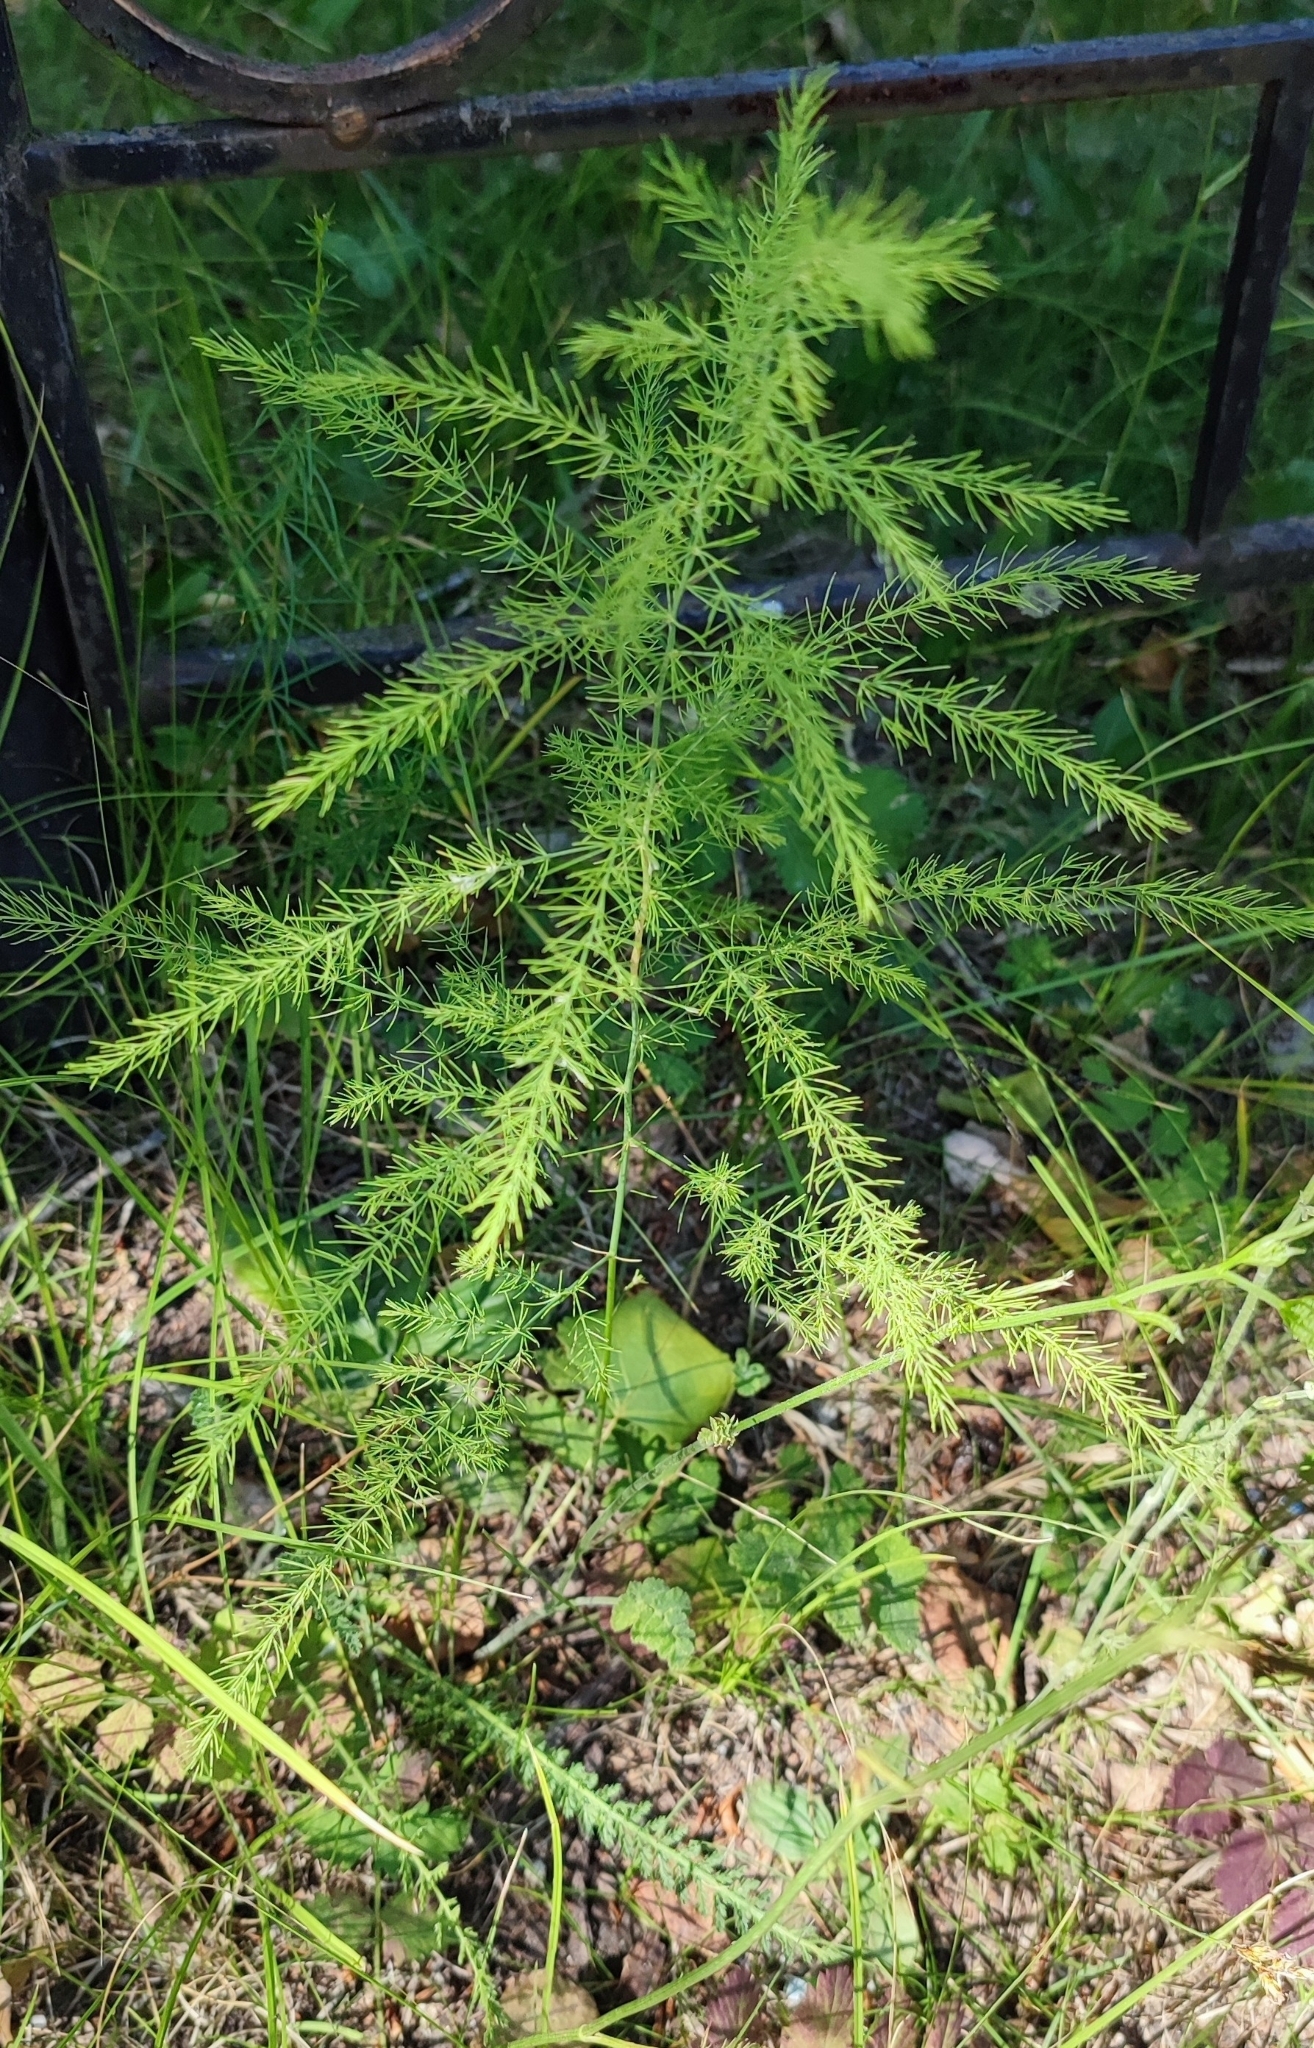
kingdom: Plantae
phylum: Tracheophyta
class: Liliopsida
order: Asparagales
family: Asparagaceae
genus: Asparagus
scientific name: Asparagus officinalis
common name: Garden asparagus
